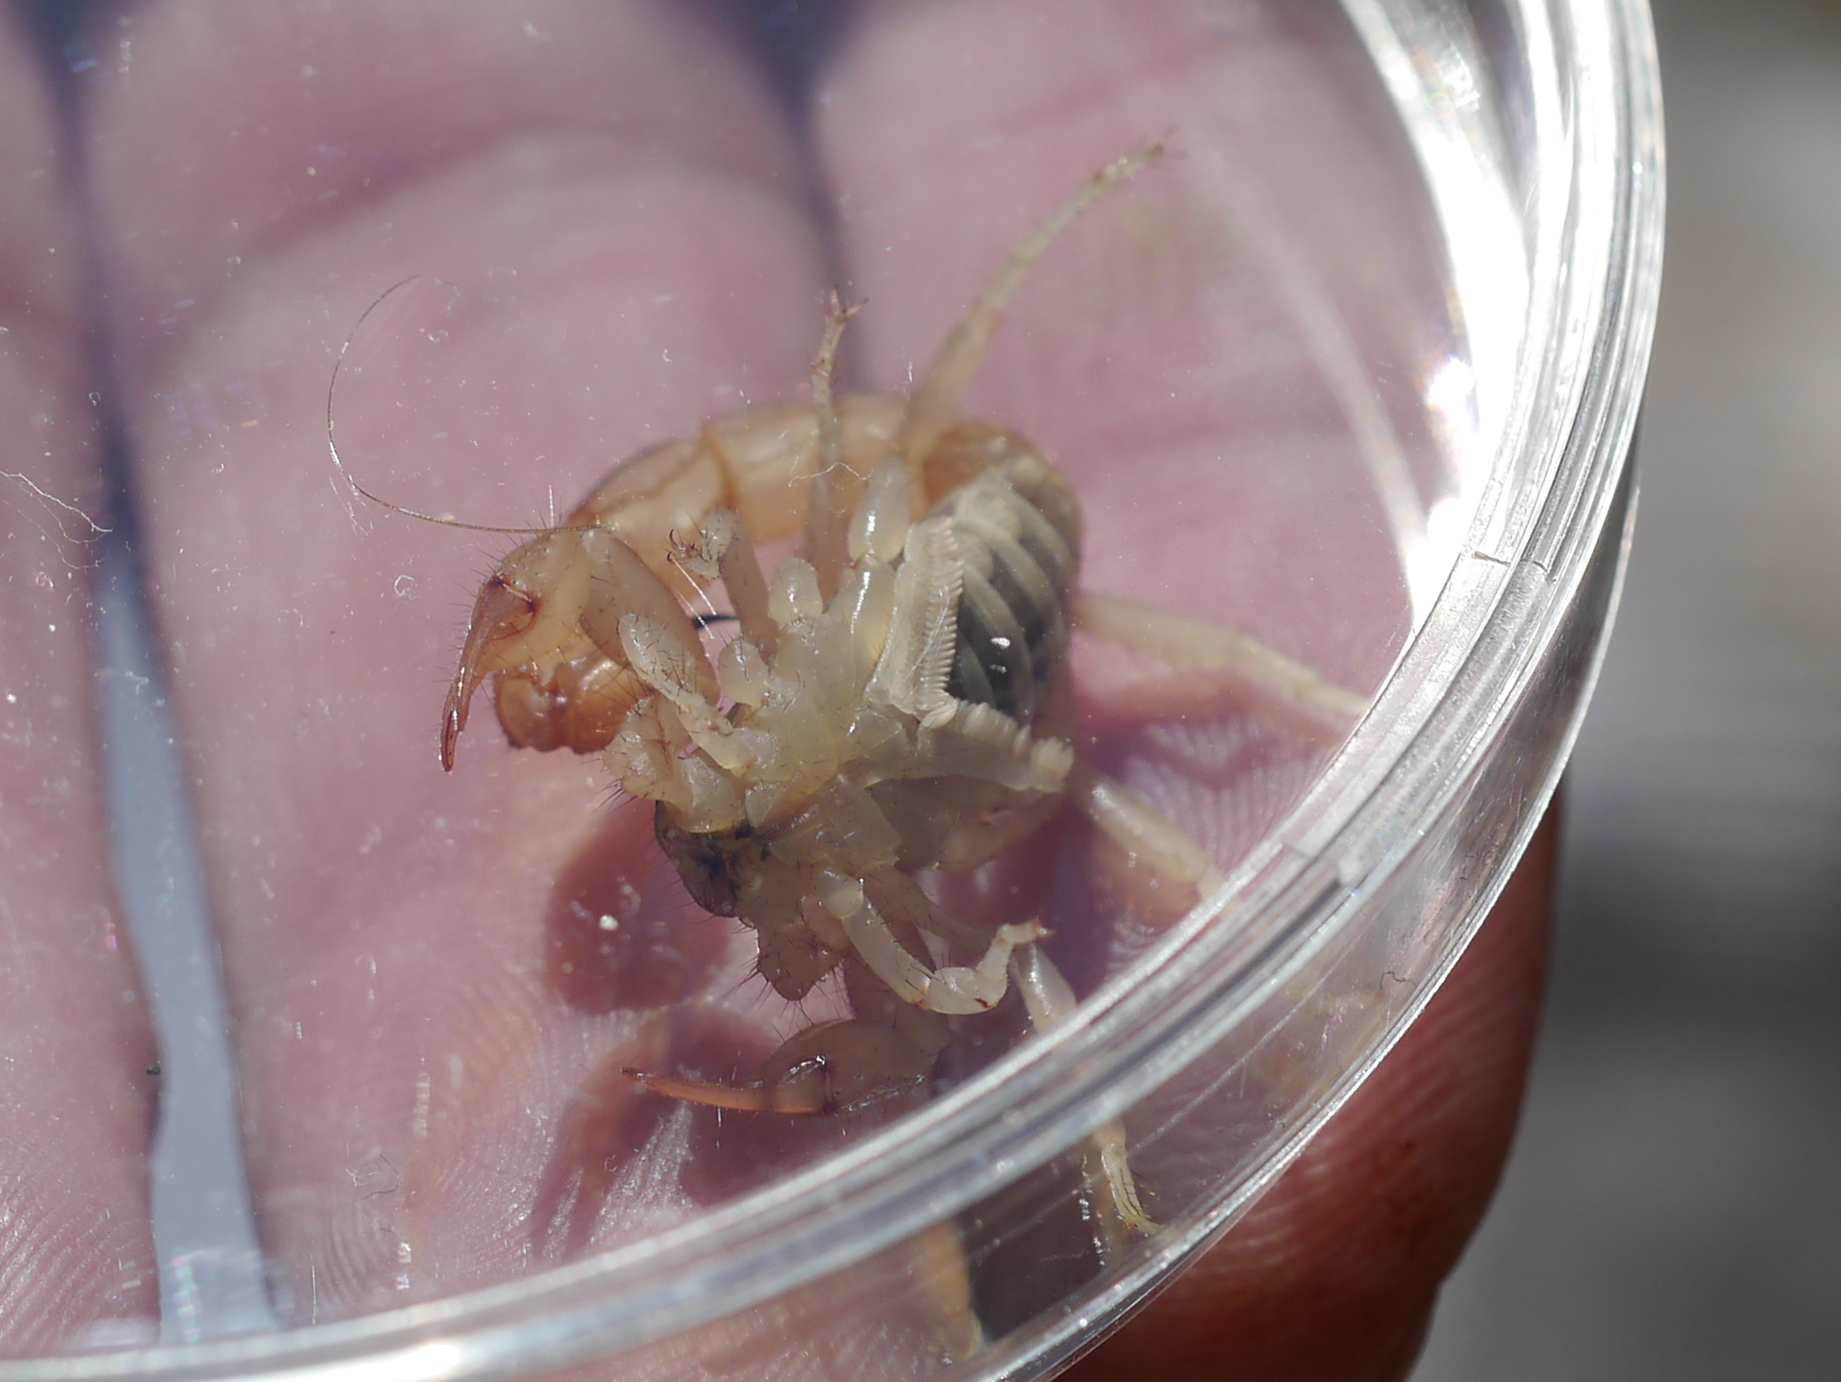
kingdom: Animalia
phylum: Arthropoda
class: Arachnida
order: Scorpiones
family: Vaejovidae
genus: Paravaejovis
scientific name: Paravaejovis spinigerus
